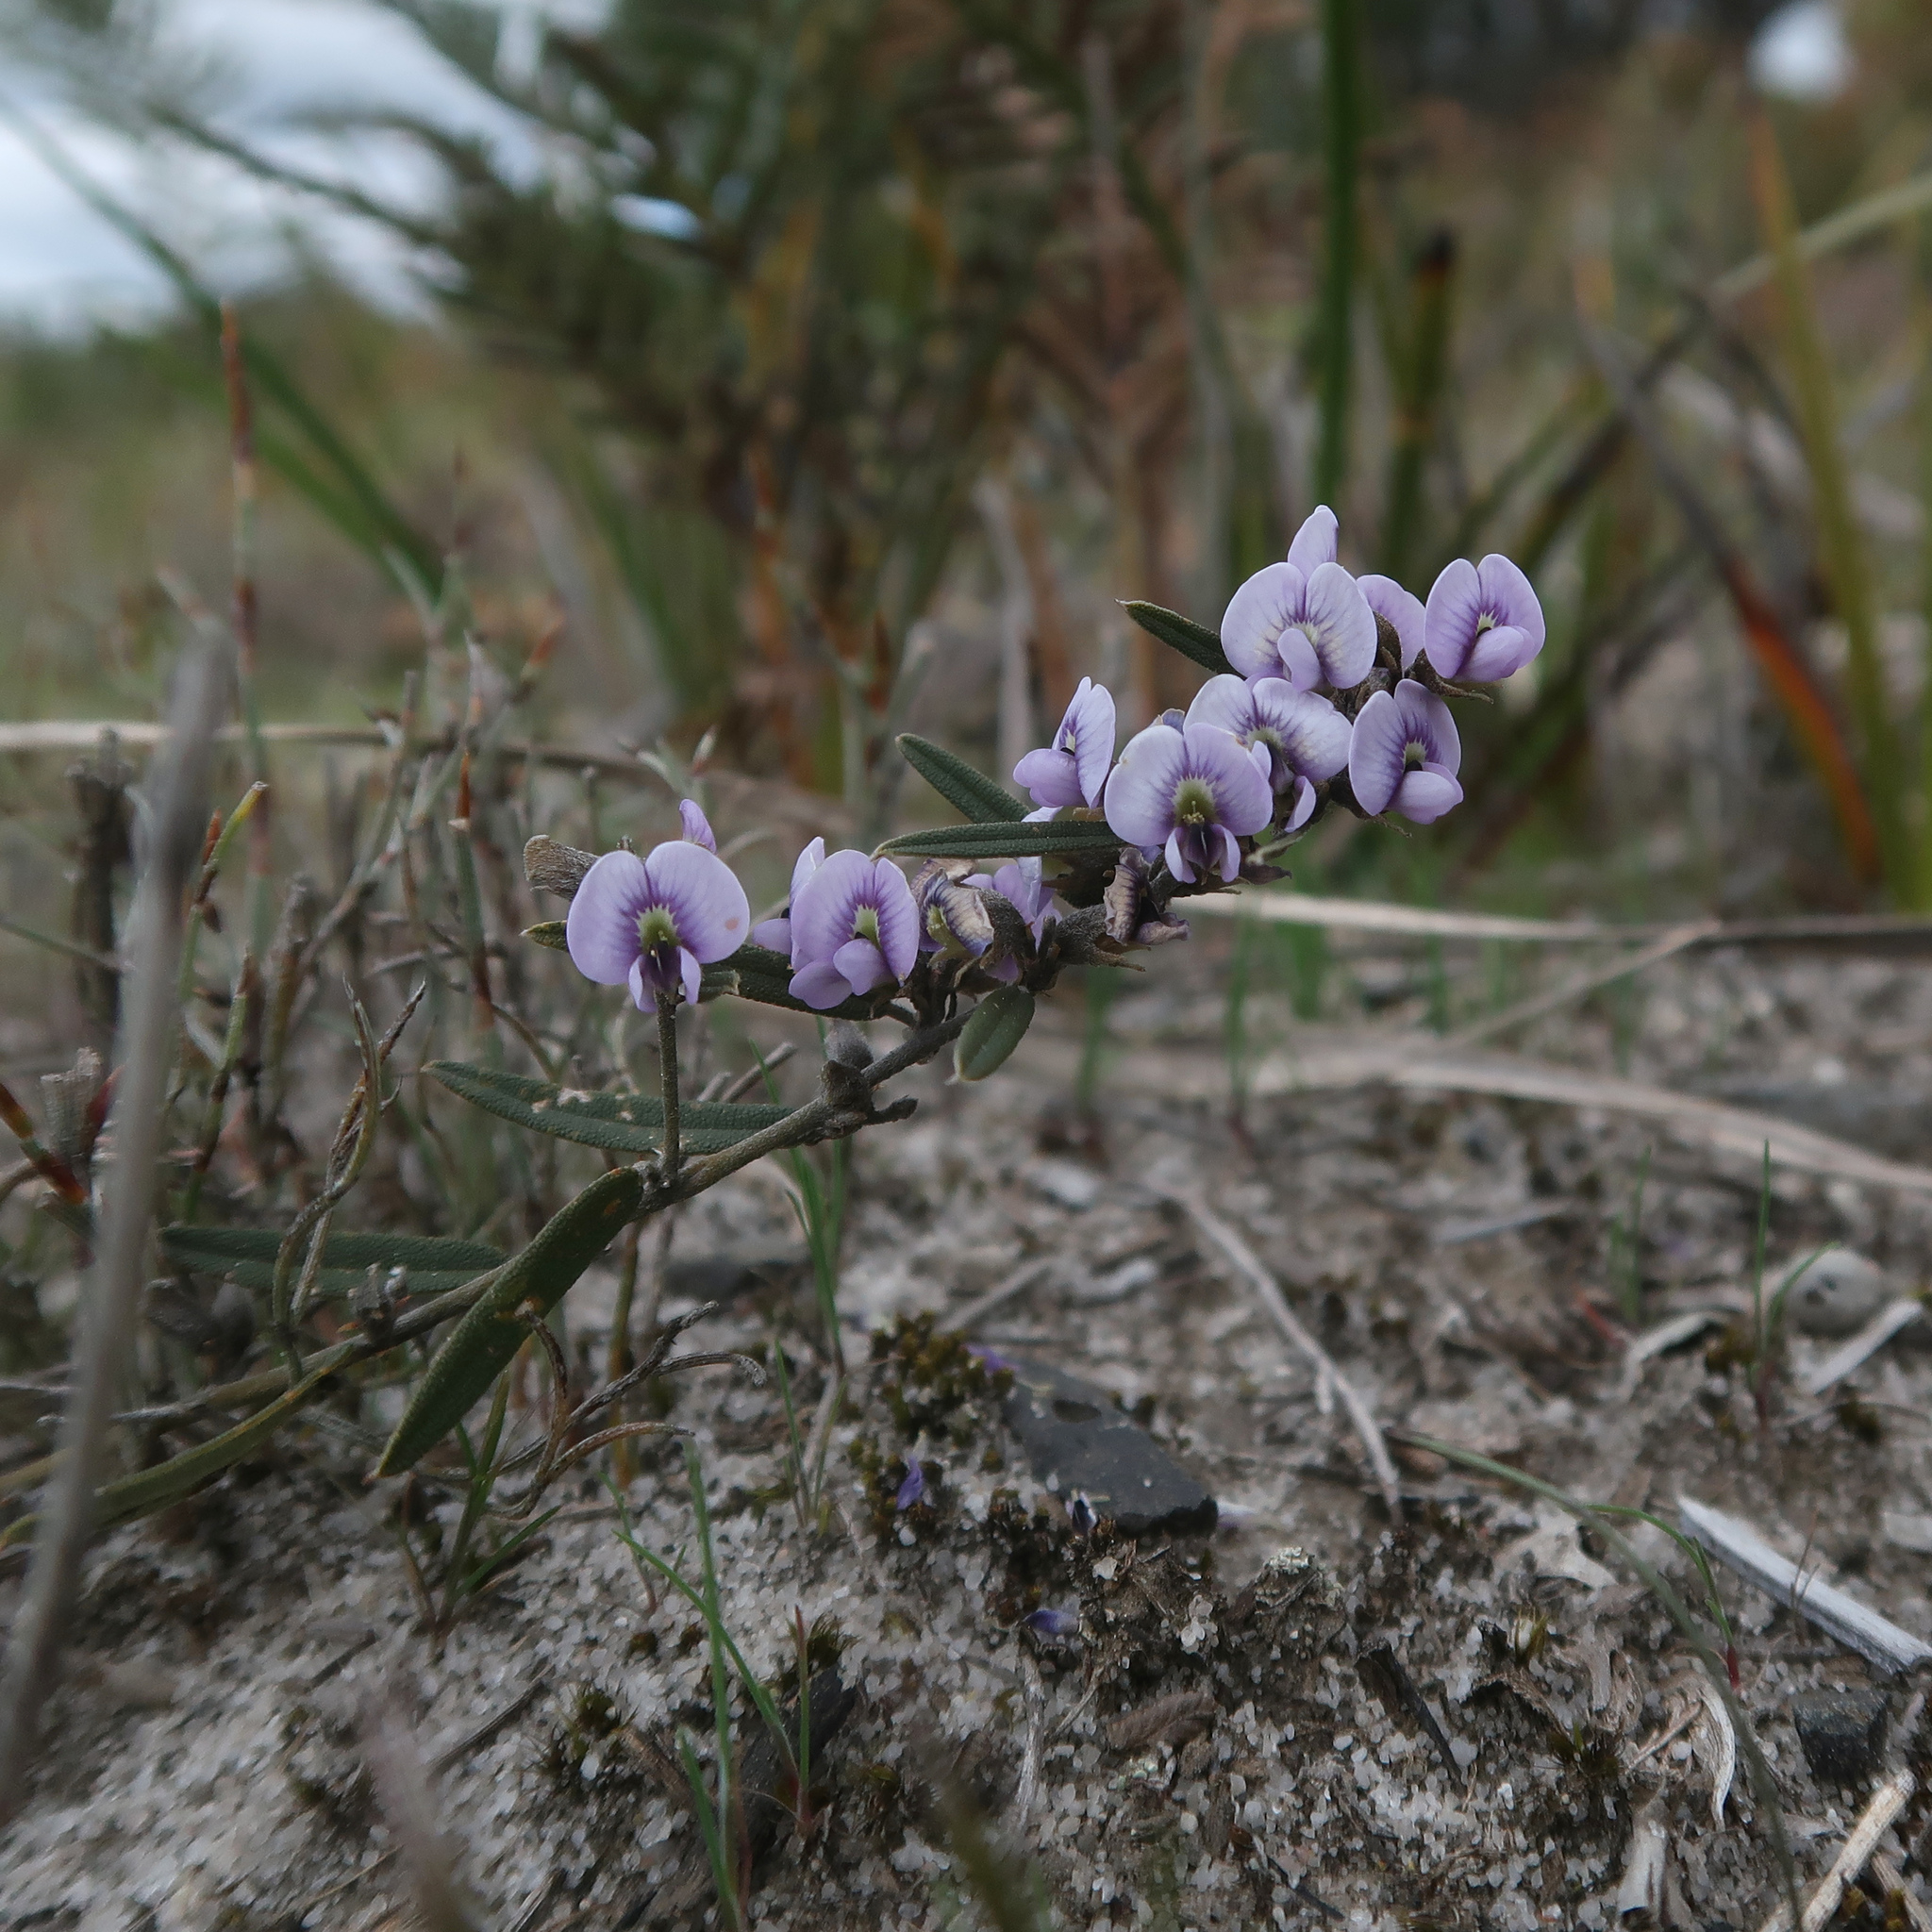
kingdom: Plantae
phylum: Tracheophyta
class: Magnoliopsida
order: Fabales
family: Fabaceae
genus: Hovea
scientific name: Hovea heterophylla
